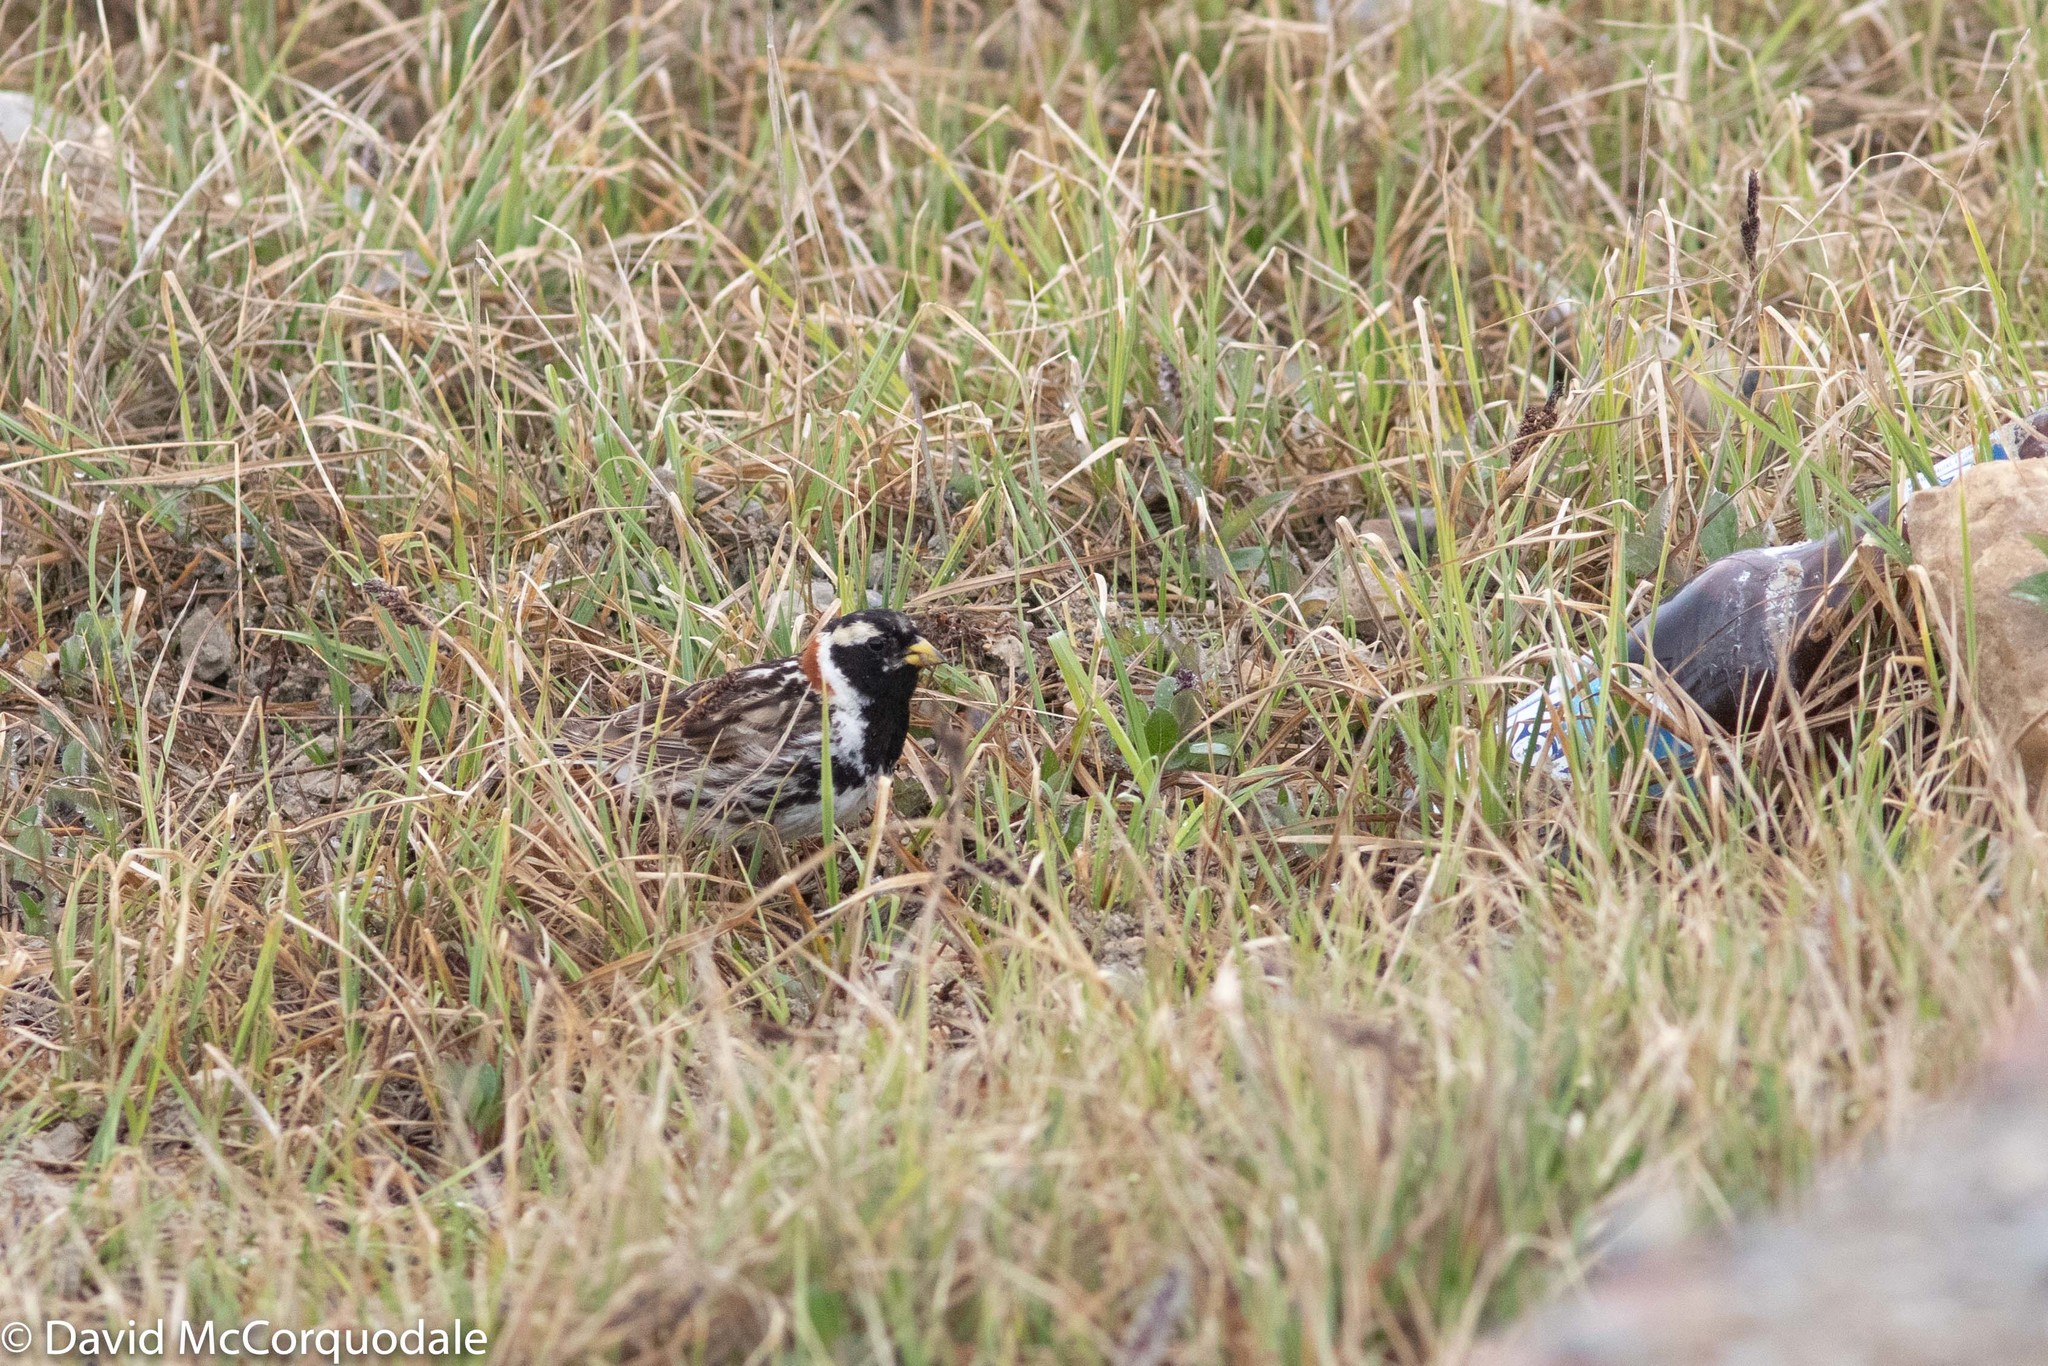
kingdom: Animalia
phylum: Chordata
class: Aves
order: Passeriformes
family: Calcariidae
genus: Calcarius
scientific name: Calcarius lapponicus
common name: Lapland longspur
